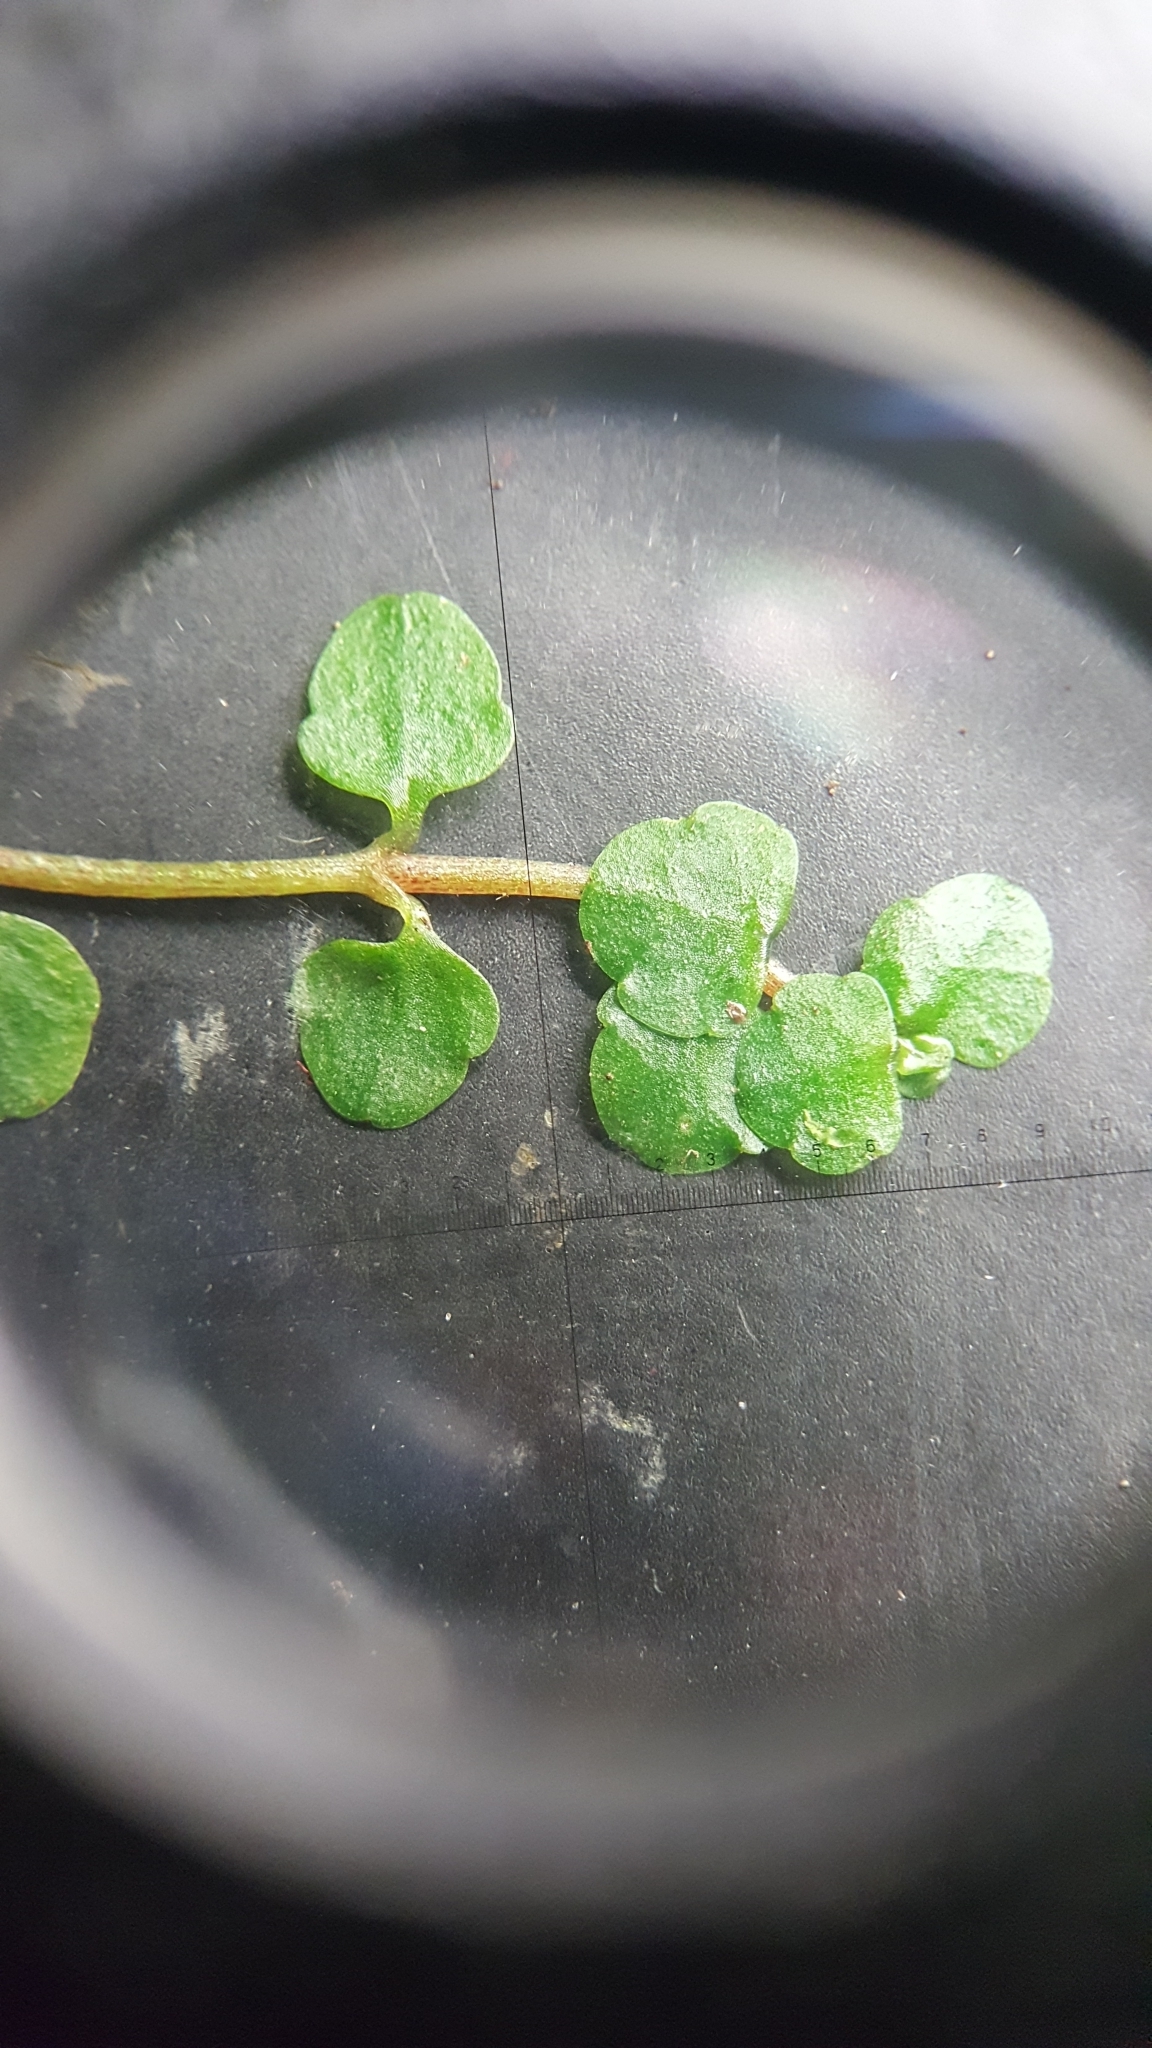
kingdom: Plantae
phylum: Tracheophyta
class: Magnoliopsida
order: Saxifragales
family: Saxifragaceae
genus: Chrysosplenium
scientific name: Chrysosplenium americanum
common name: American golden-saxifrage
